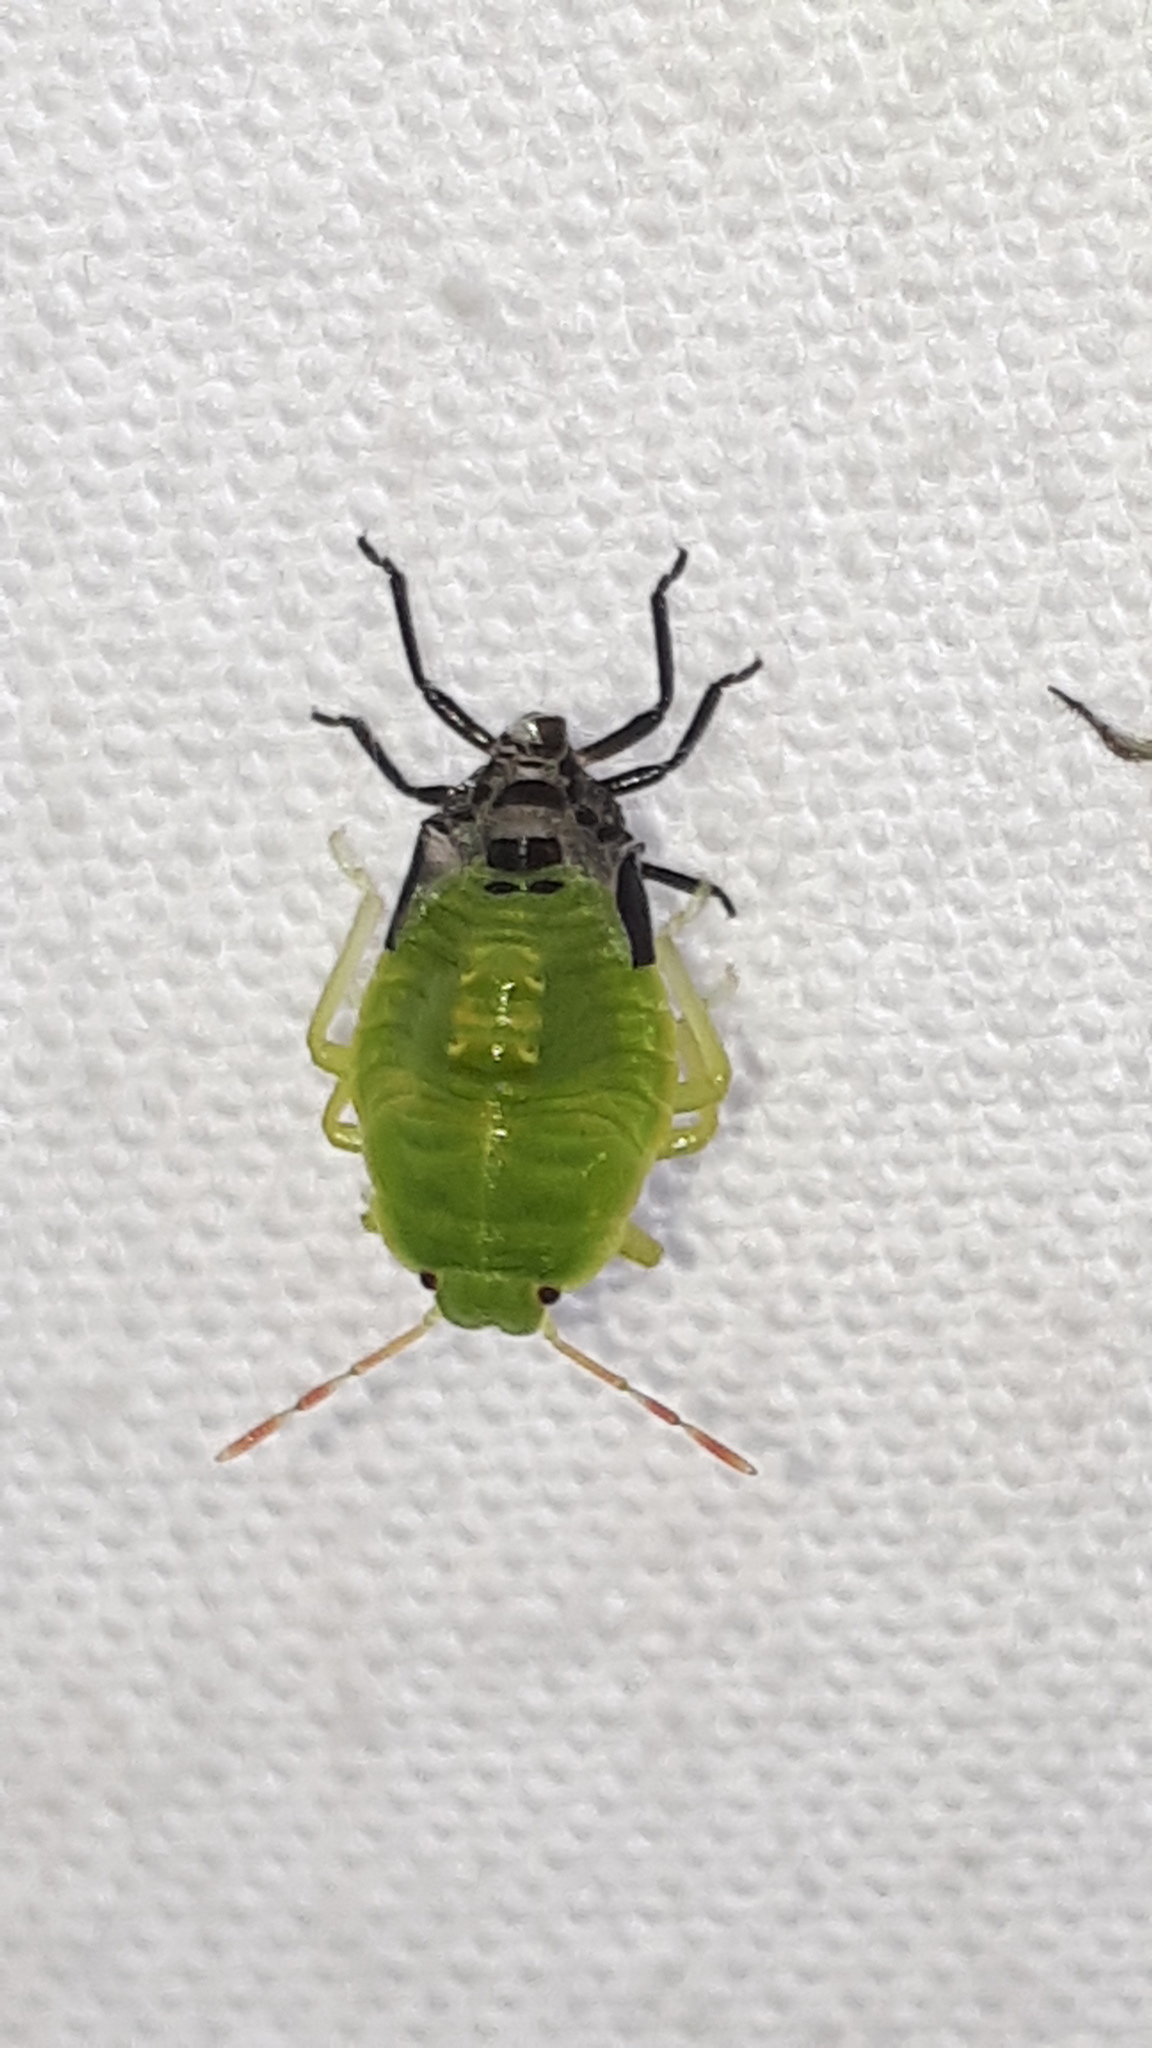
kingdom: Animalia
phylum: Arthropoda
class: Insecta
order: Hemiptera
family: Pentatomidae
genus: Palomena
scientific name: Palomena prasina
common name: Green shieldbug
